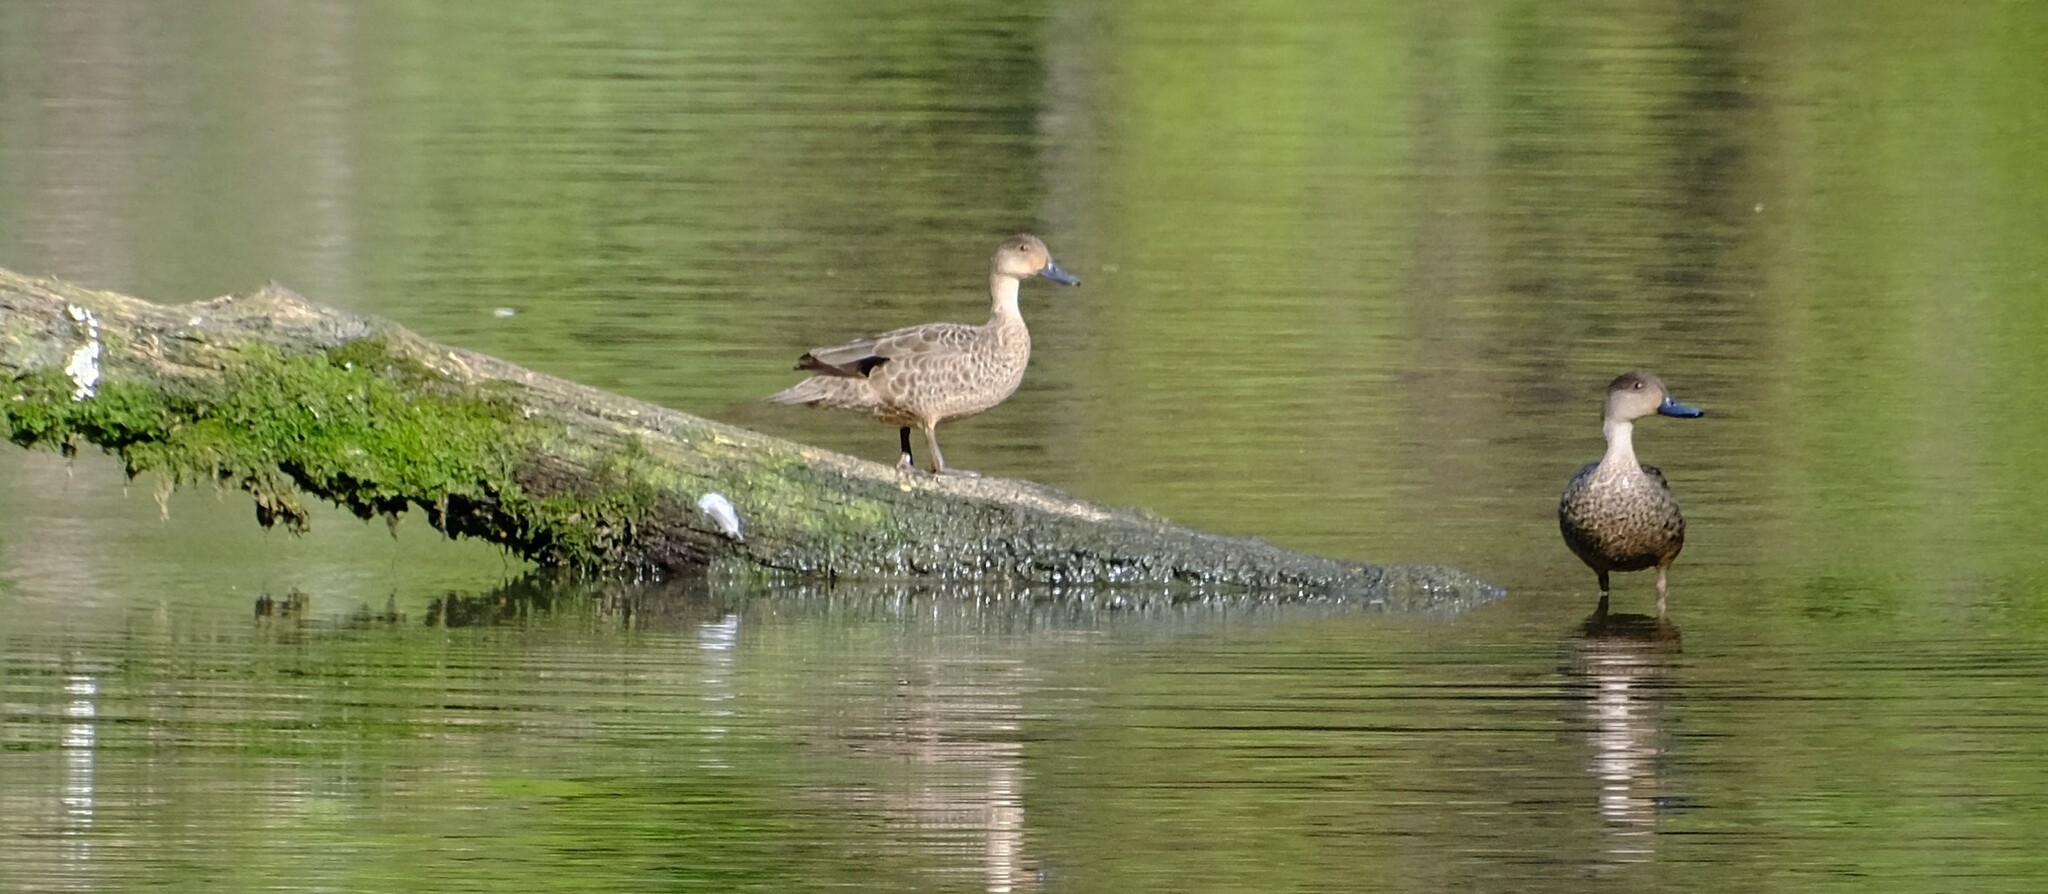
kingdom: Animalia
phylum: Chordata
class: Aves
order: Anseriformes
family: Anatidae
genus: Anas
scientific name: Anas gracilis
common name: Grey teal
